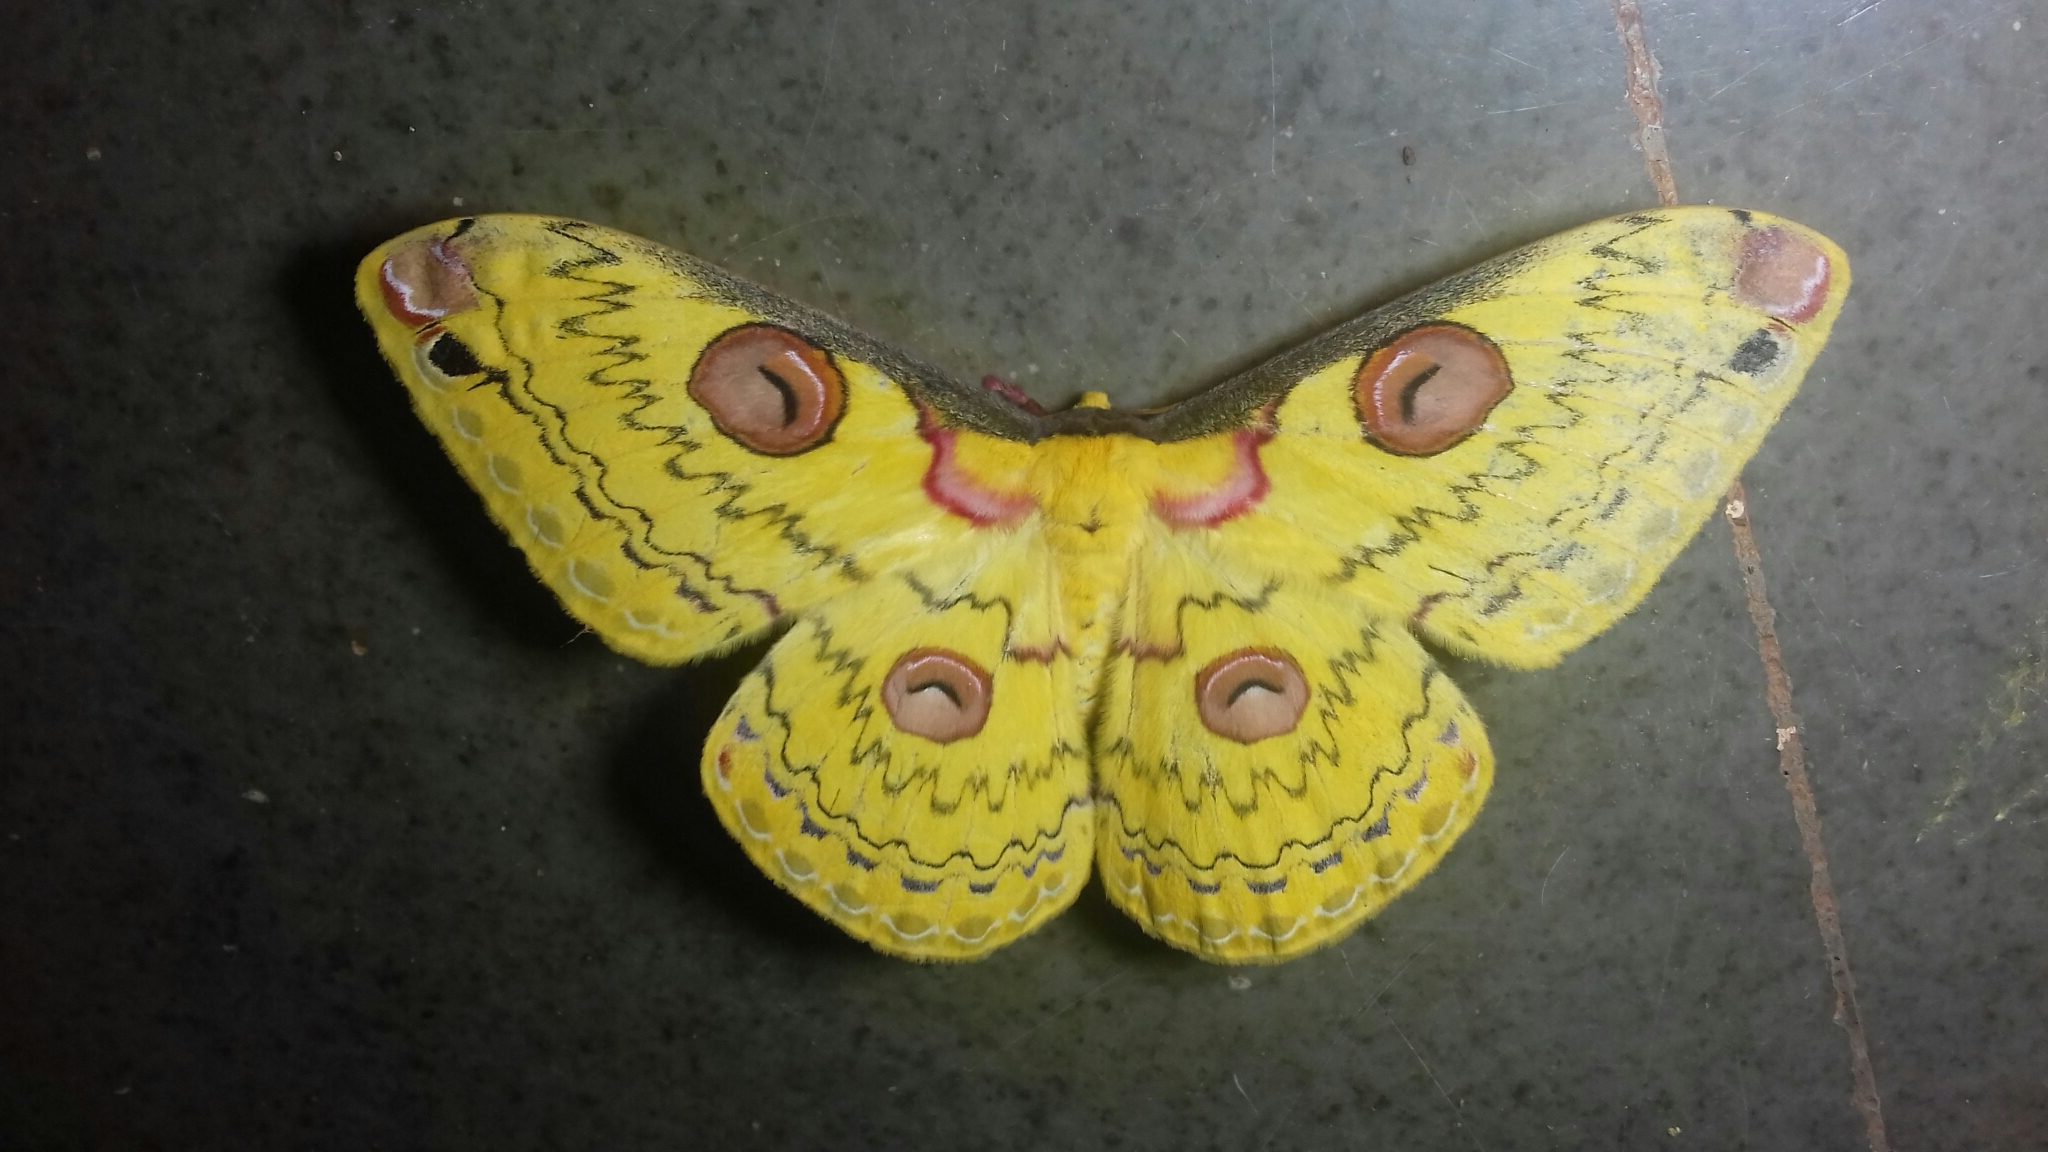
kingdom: Animalia
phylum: Arthropoda
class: Insecta
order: Lepidoptera
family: Saturniidae
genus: Loepa
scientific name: Loepa katinka
